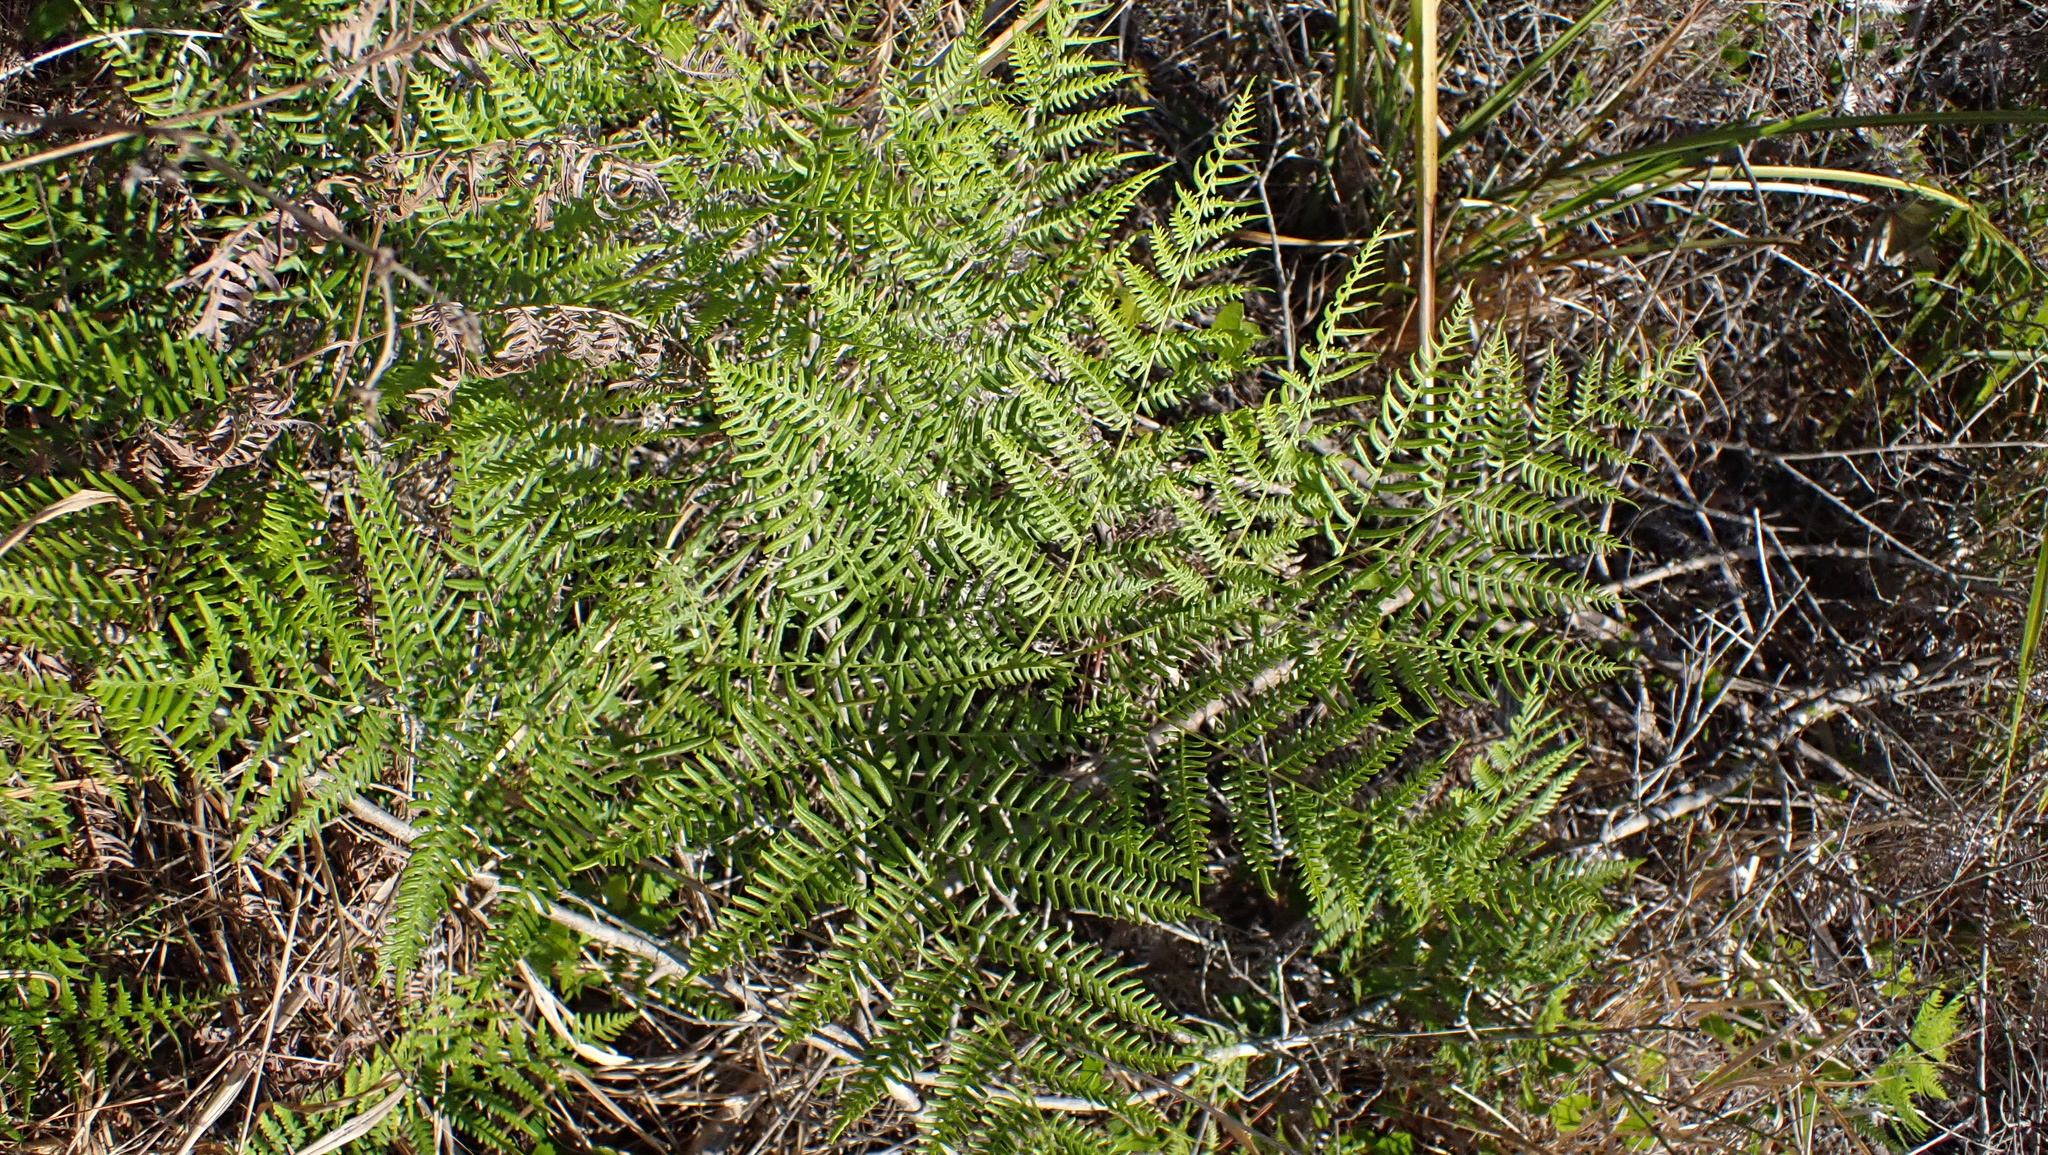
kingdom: Plantae
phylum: Tracheophyta
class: Polypodiopsida
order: Polypodiales
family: Dennstaedtiaceae
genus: Pteridium
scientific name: Pteridium aquilinum
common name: Bracken
